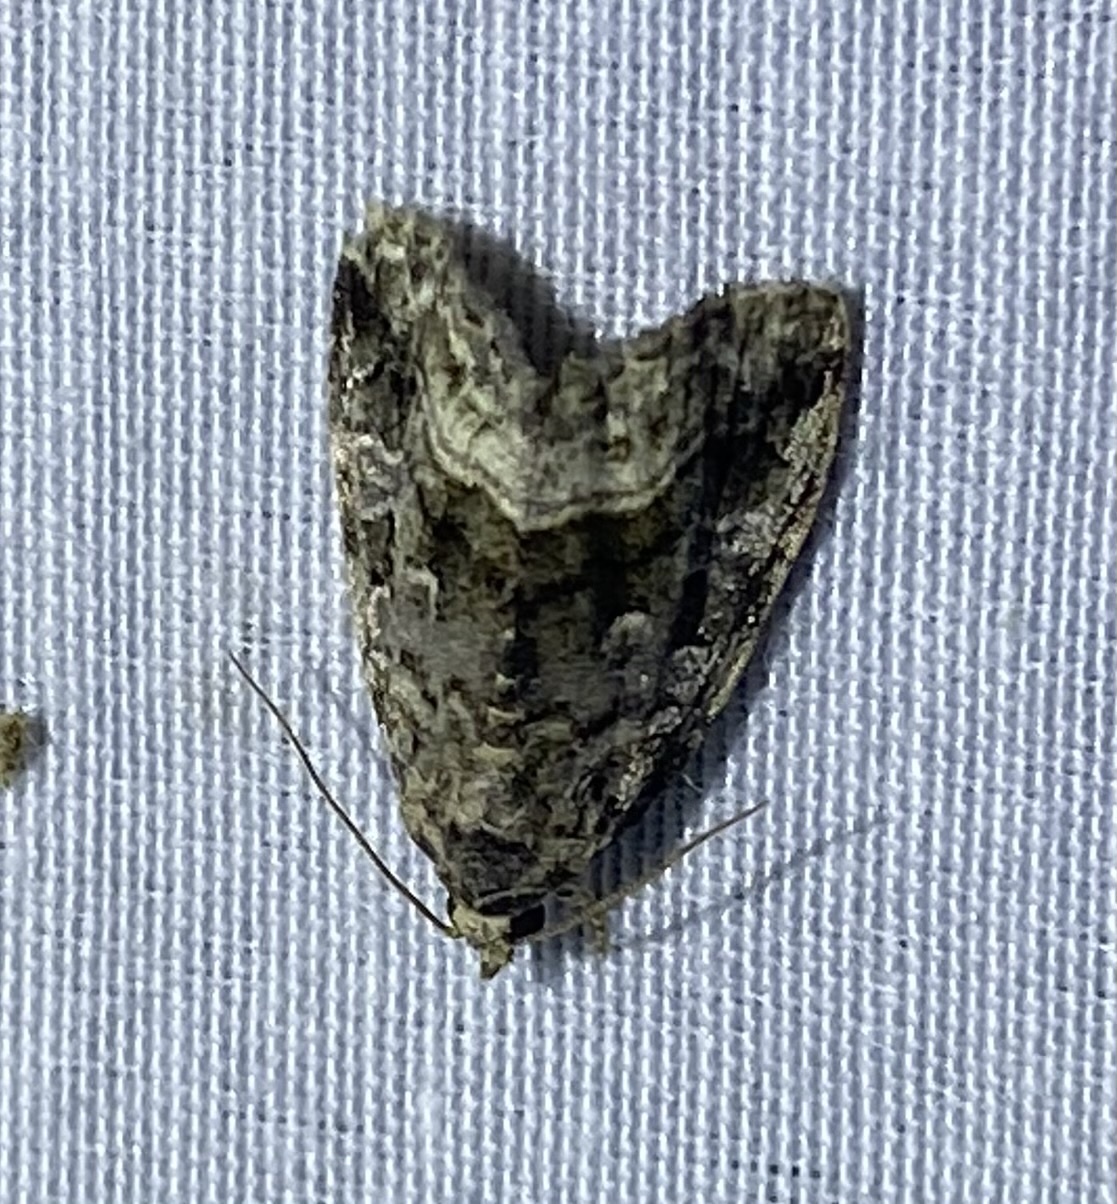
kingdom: Animalia
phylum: Arthropoda
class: Insecta
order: Lepidoptera
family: Noctuidae
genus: Protodeltote
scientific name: Protodeltote muscosula
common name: Large mossy glyph
